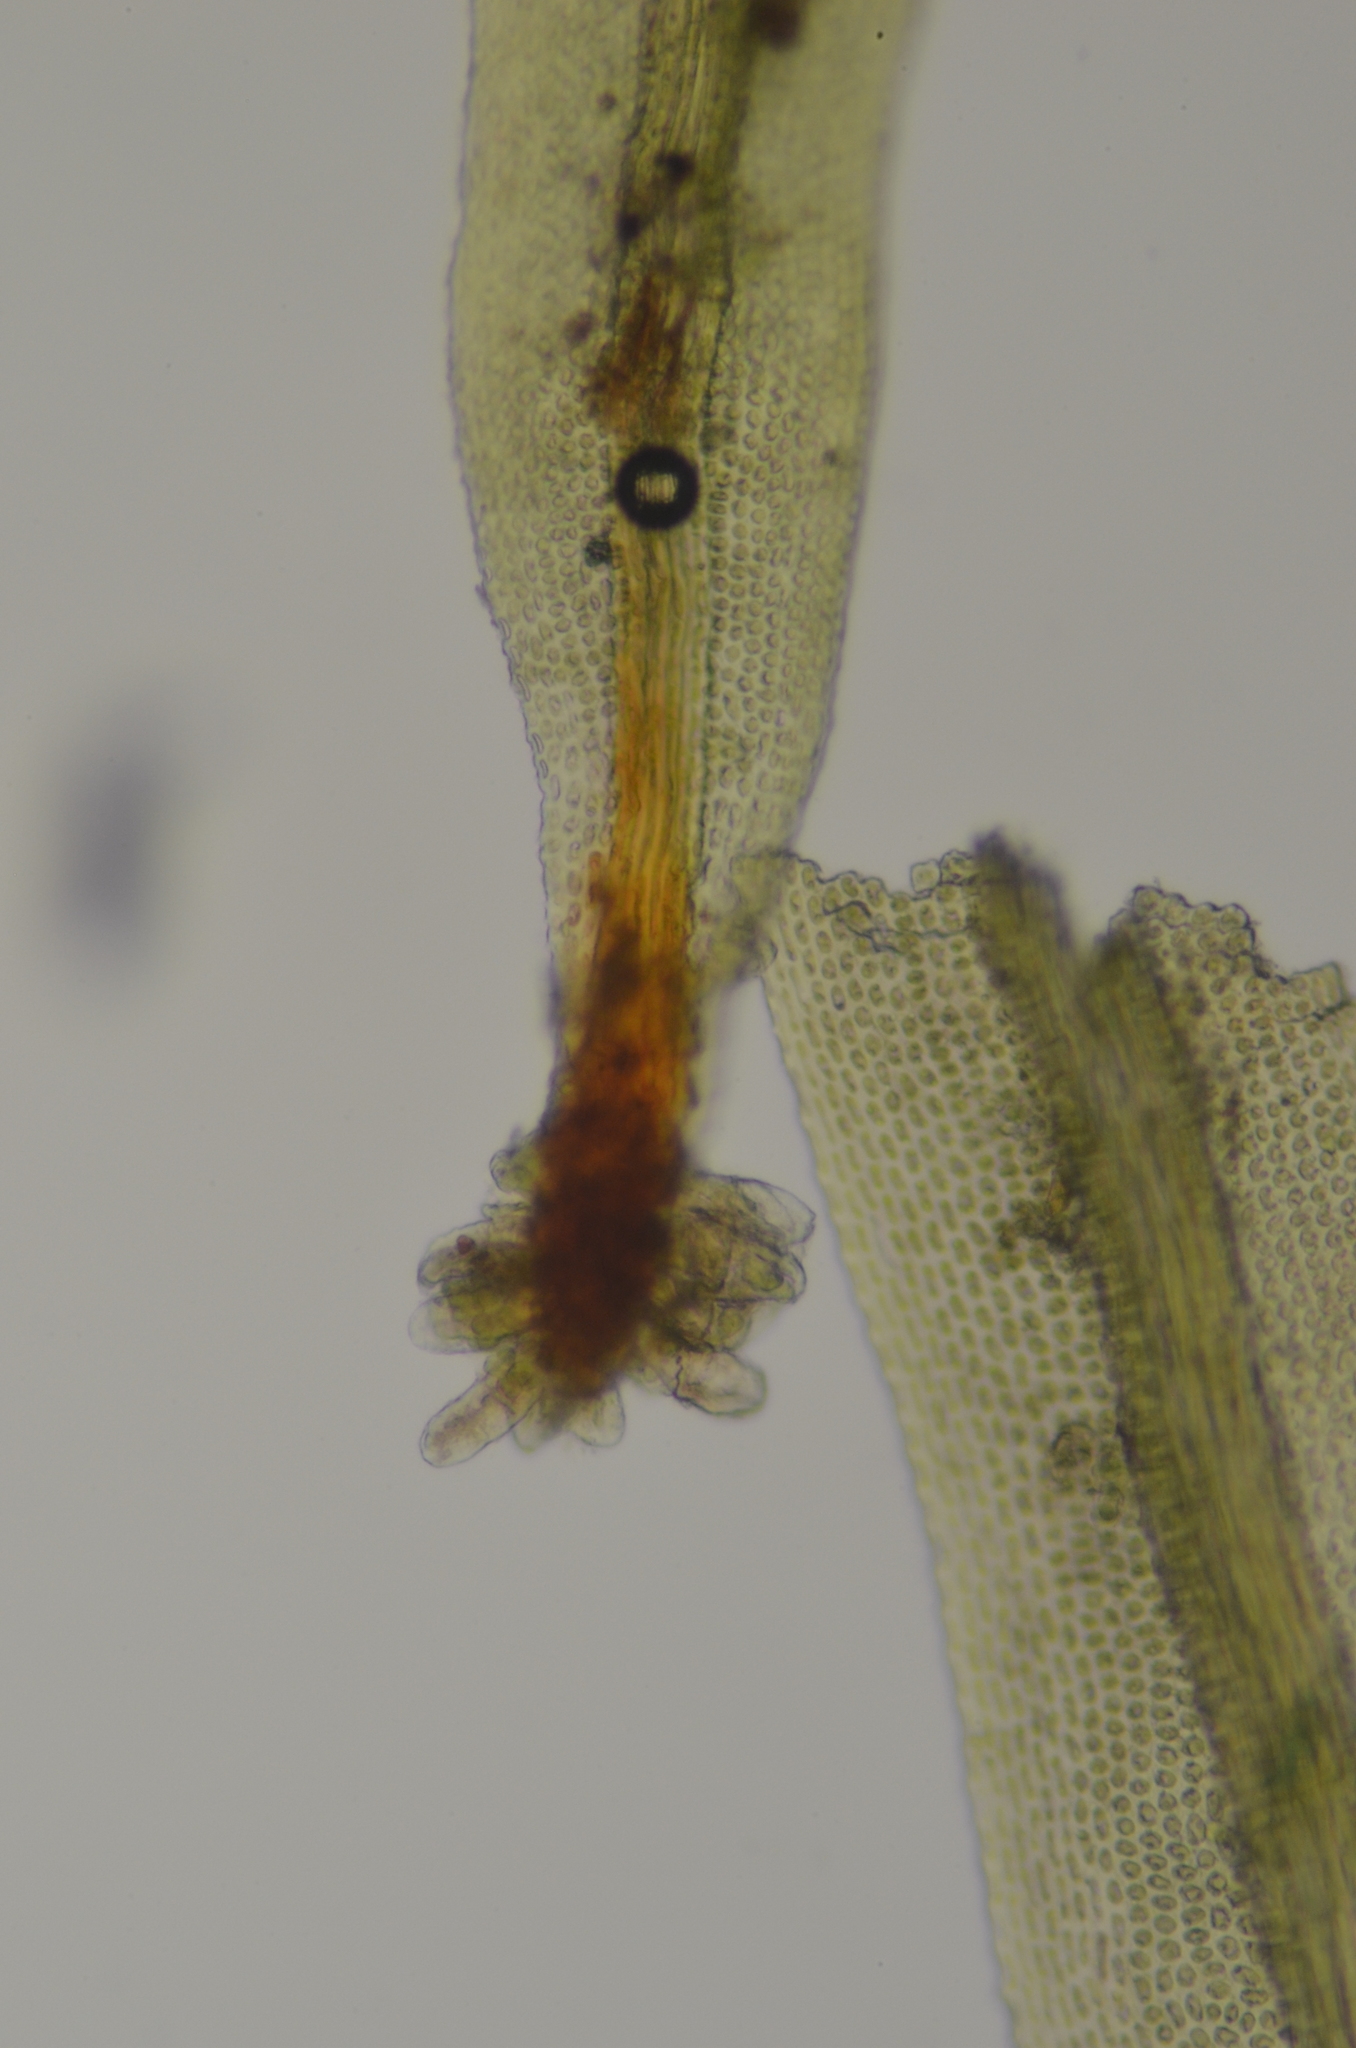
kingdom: Plantae
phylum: Bryophyta
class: Bryopsida
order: Orthotrichales
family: Orthotrichaceae
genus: Plenogemma
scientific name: Plenogemma phyllantha
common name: Frizzled pincushion
